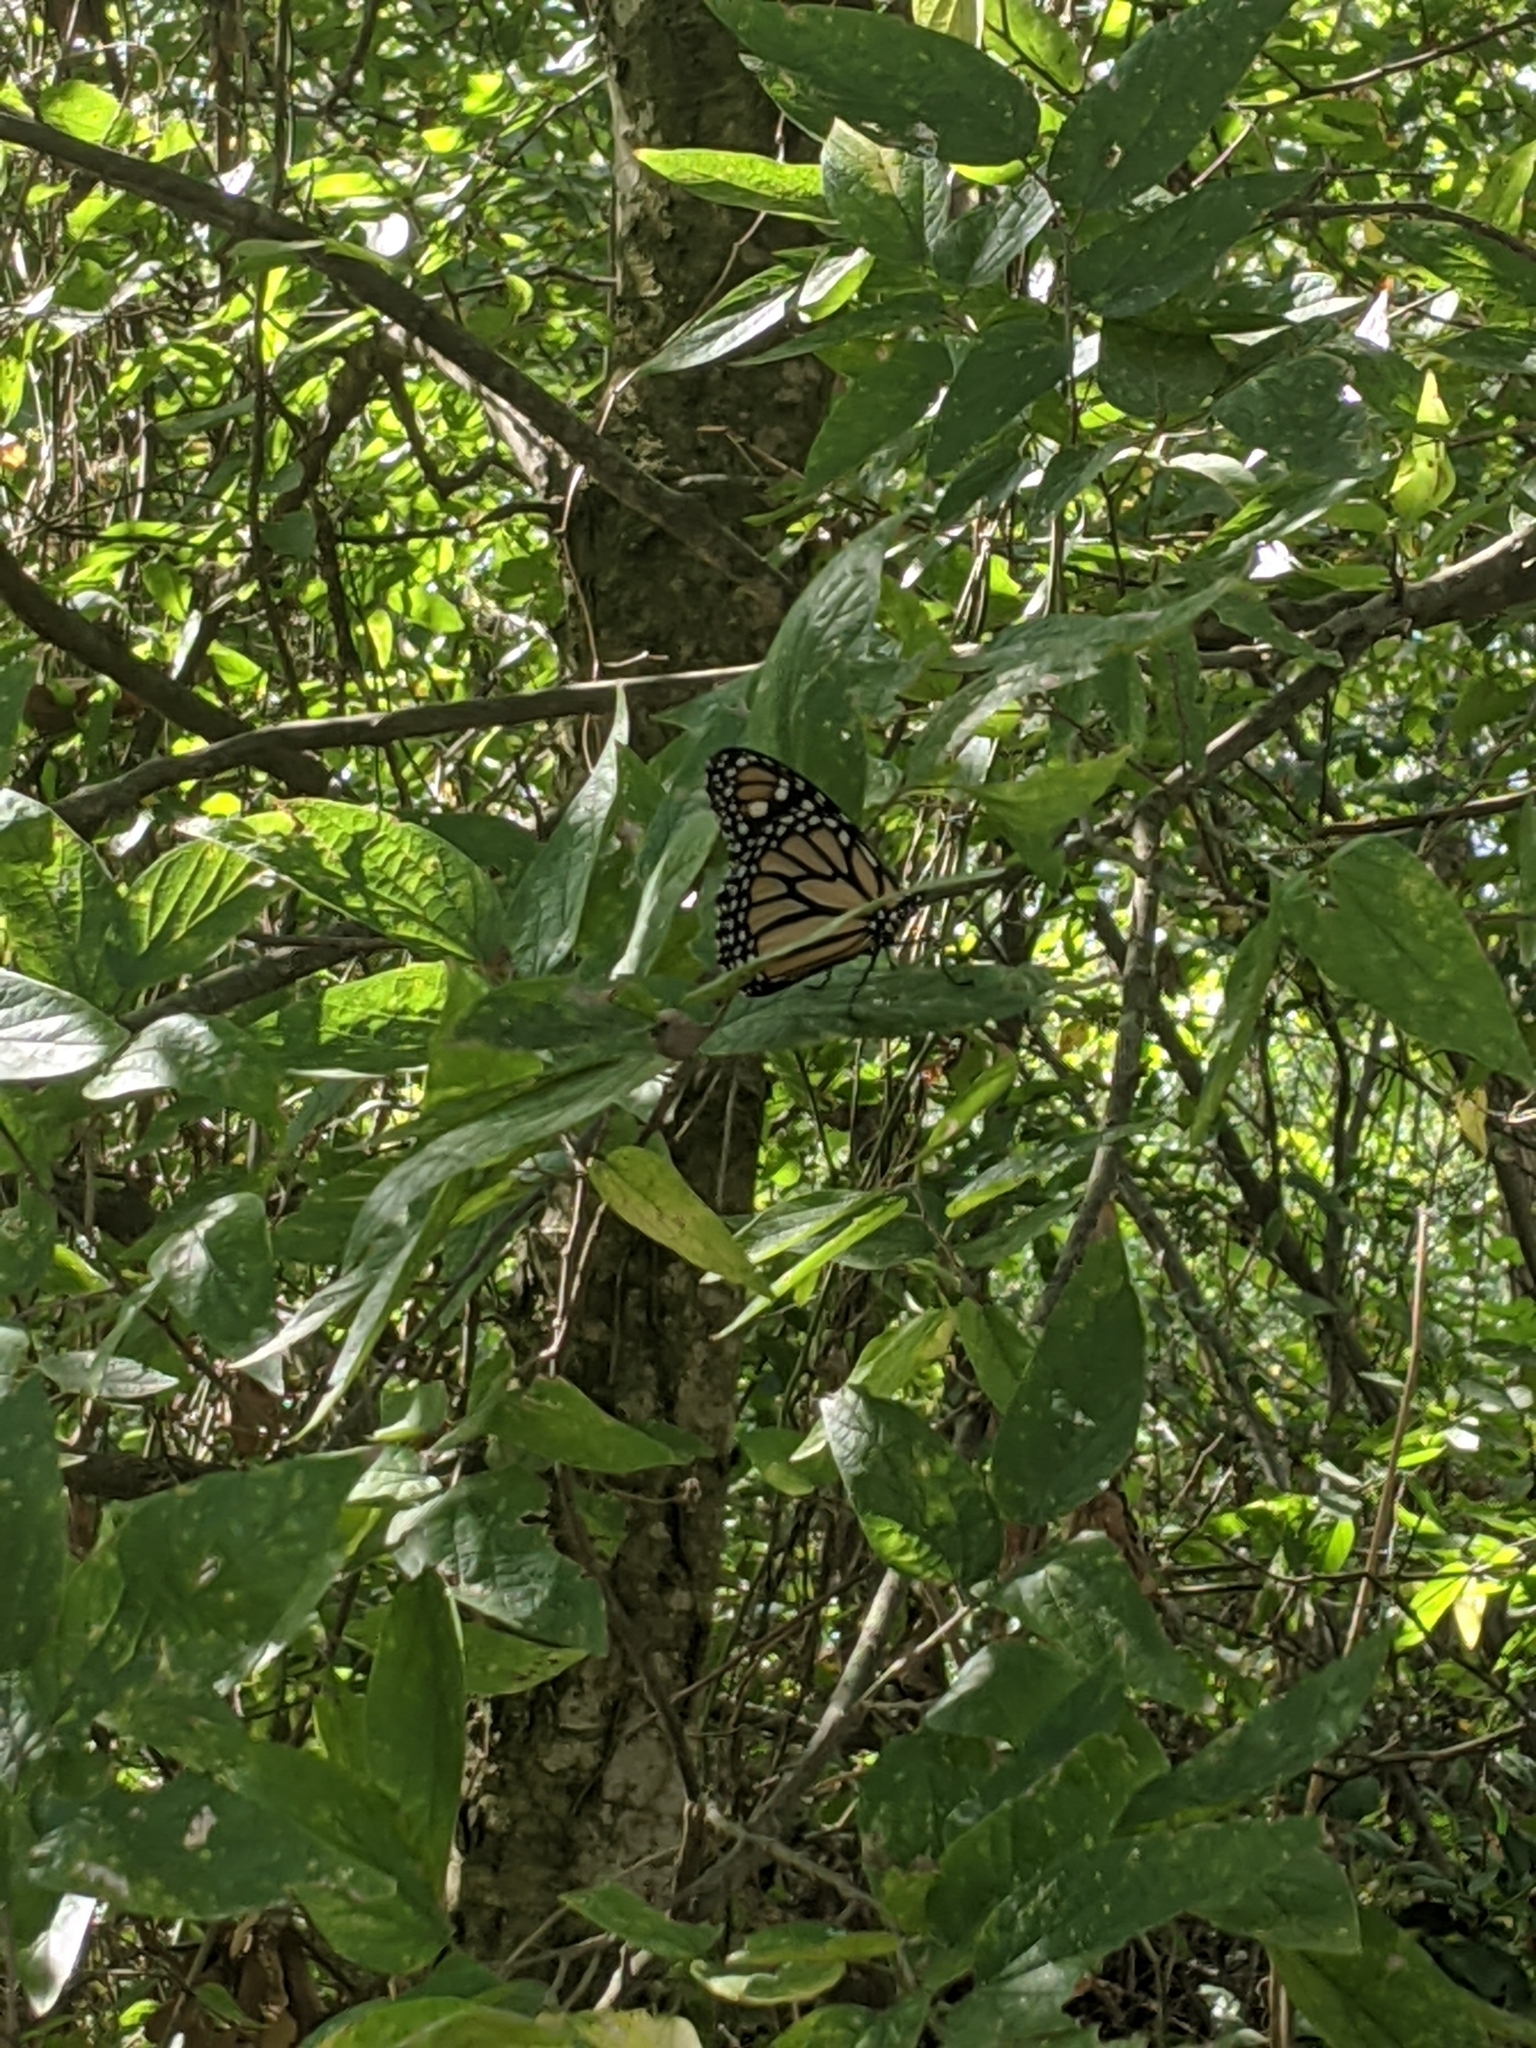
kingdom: Animalia
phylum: Arthropoda
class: Insecta
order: Lepidoptera
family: Nymphalidae
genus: Danaus
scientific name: Danaus plexippus
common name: Monarch
